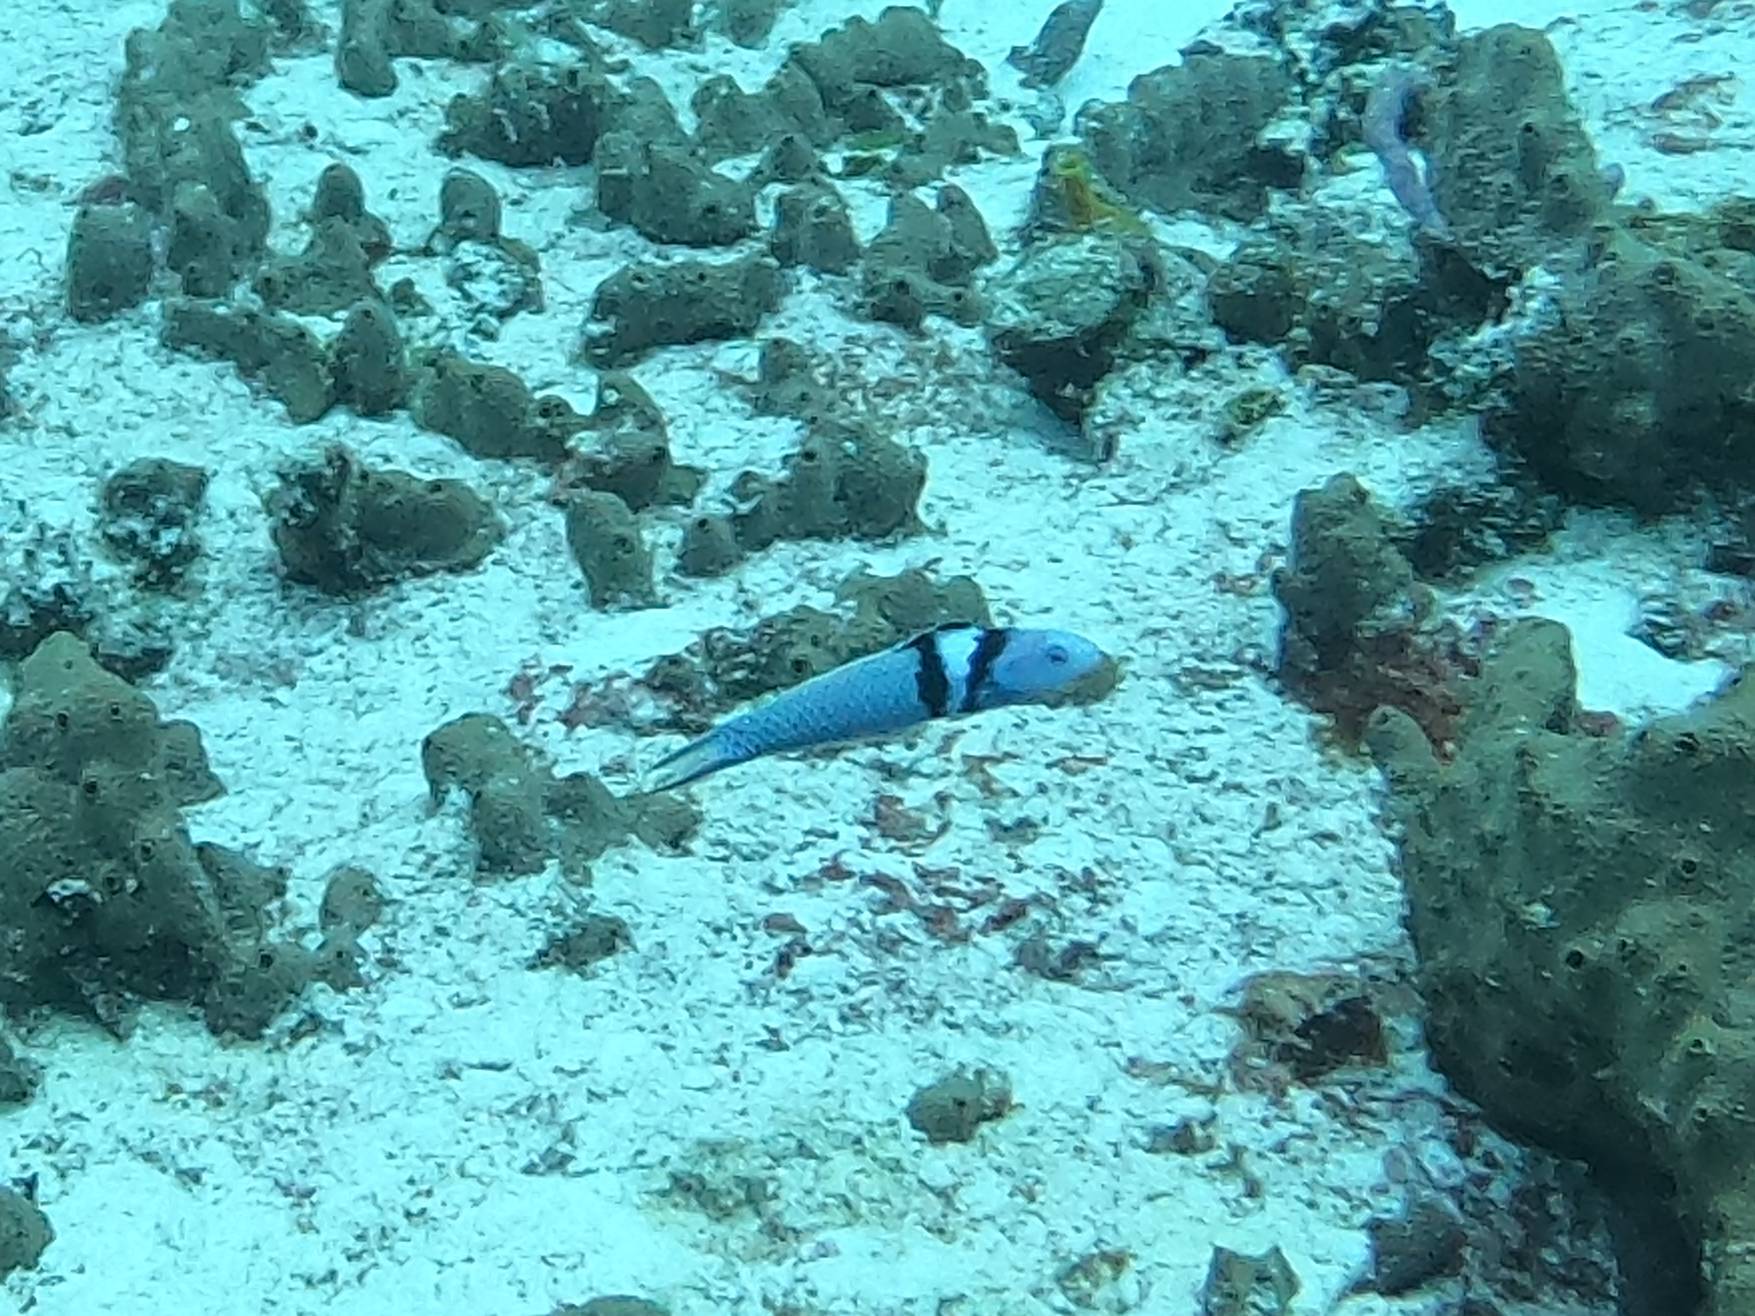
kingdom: Animalia
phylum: Chordata
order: Perciformes
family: Labridae
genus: Thalassoma
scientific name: Thalassoma bifasciatum
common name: Bluehead wrasse
